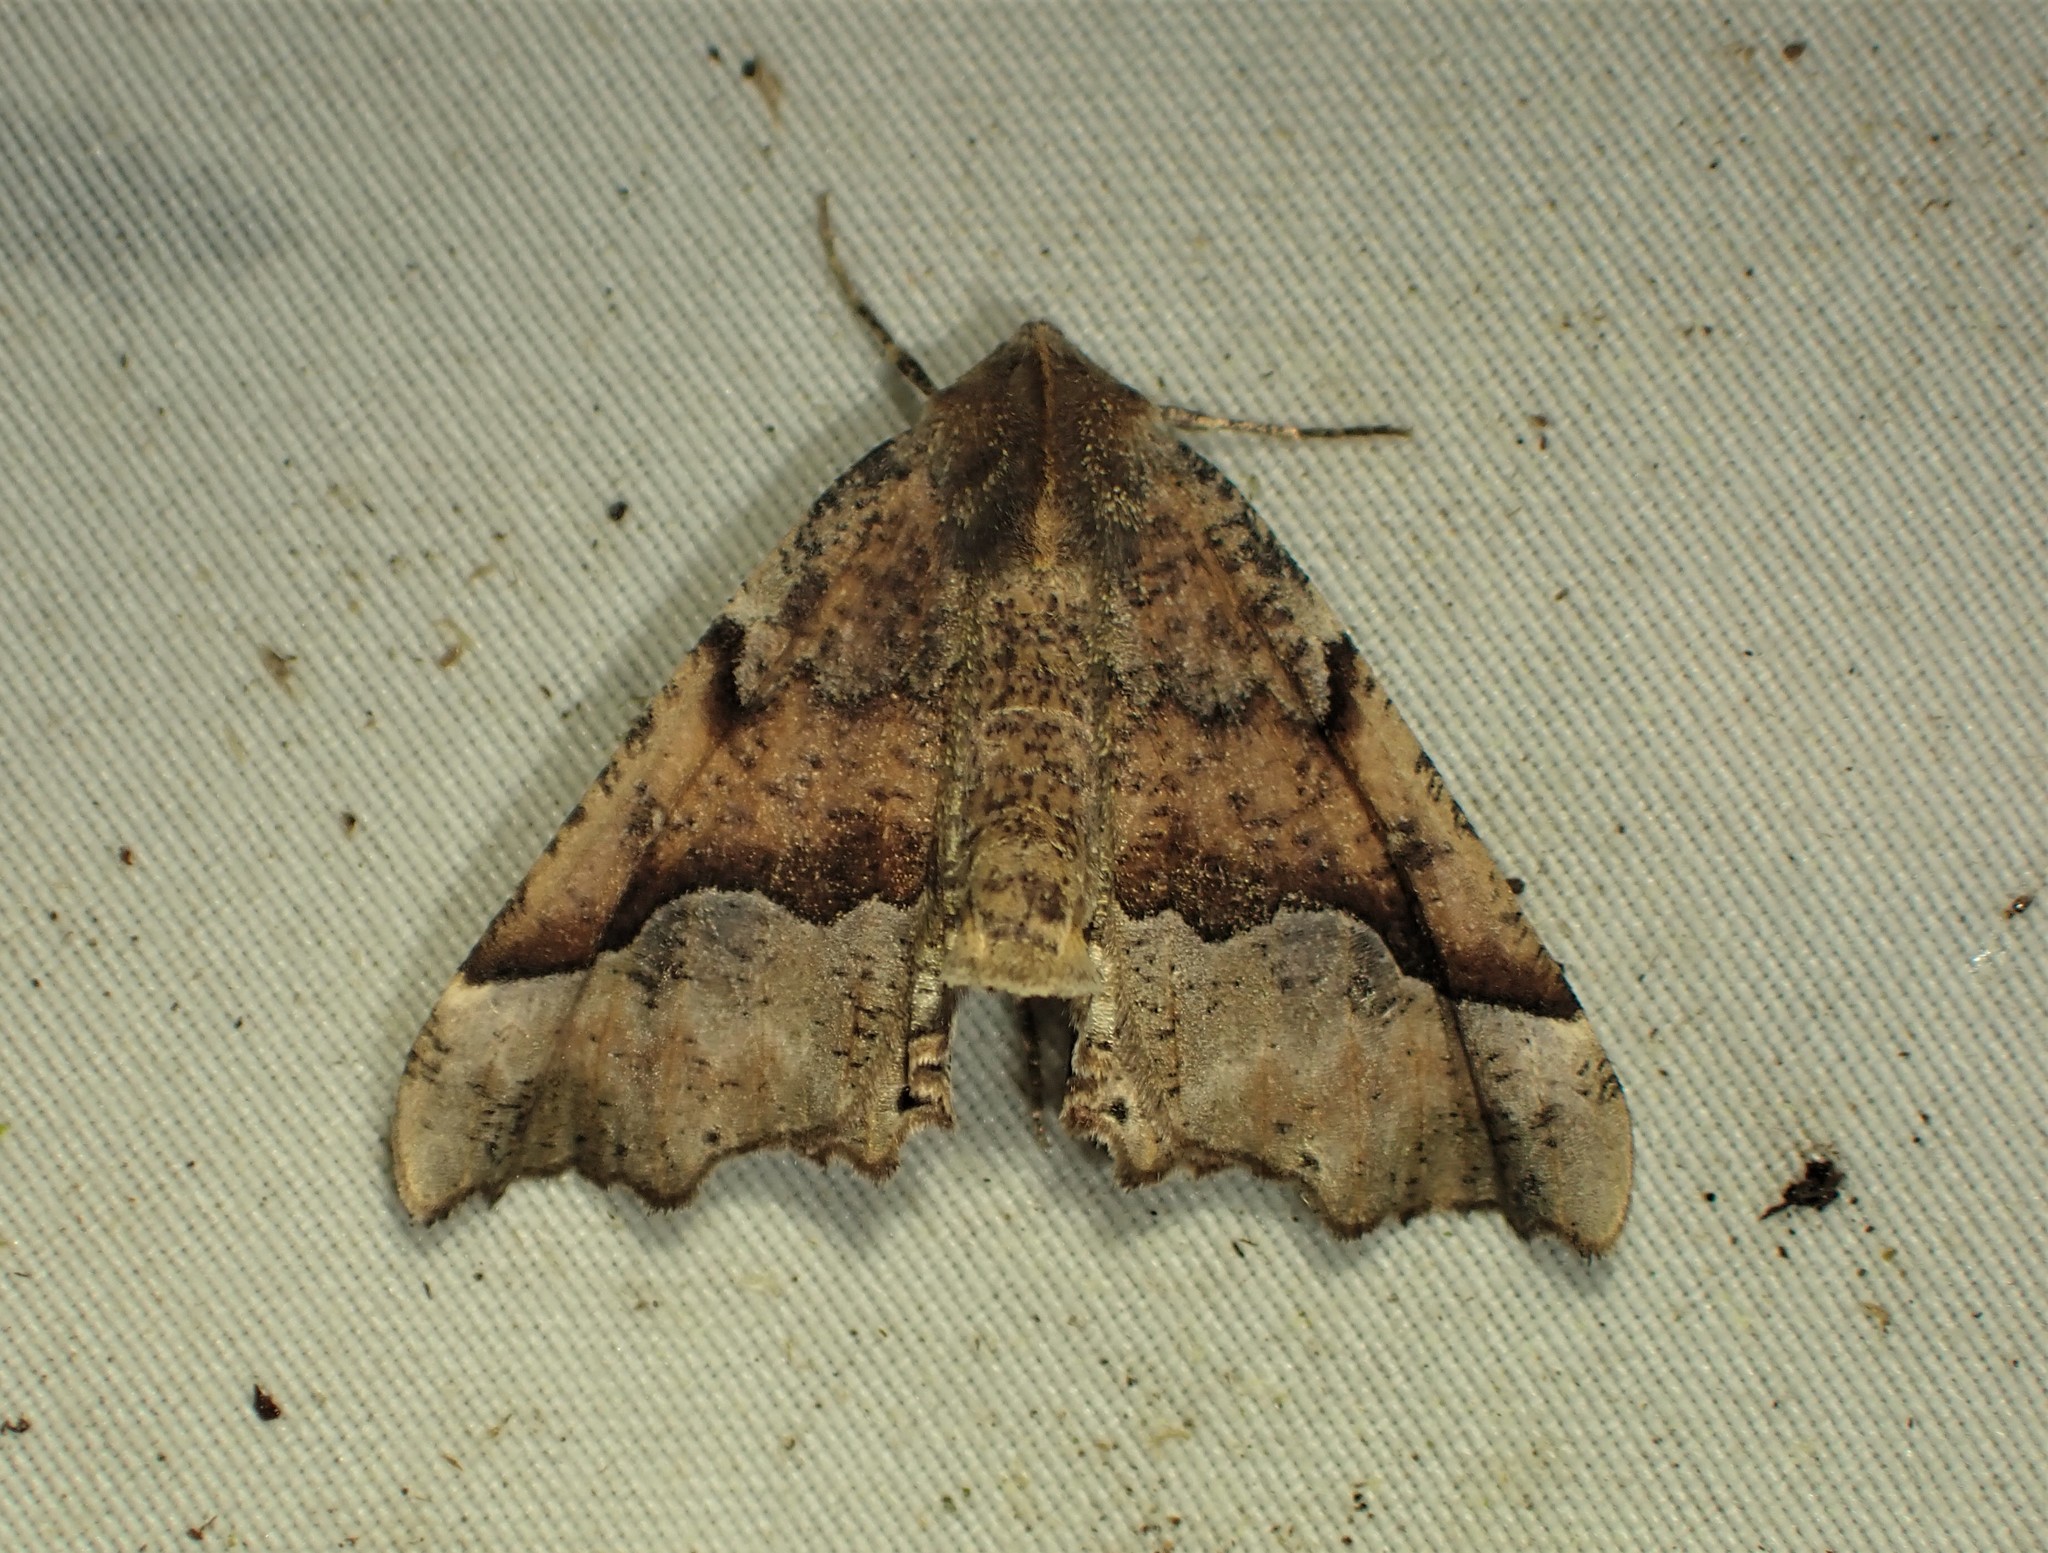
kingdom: Animalia
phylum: Arthropoda
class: Insecta
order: Lepidoptera
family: Geometridae
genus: Pero
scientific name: Pero morrisonaria
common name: Morrison's pero
